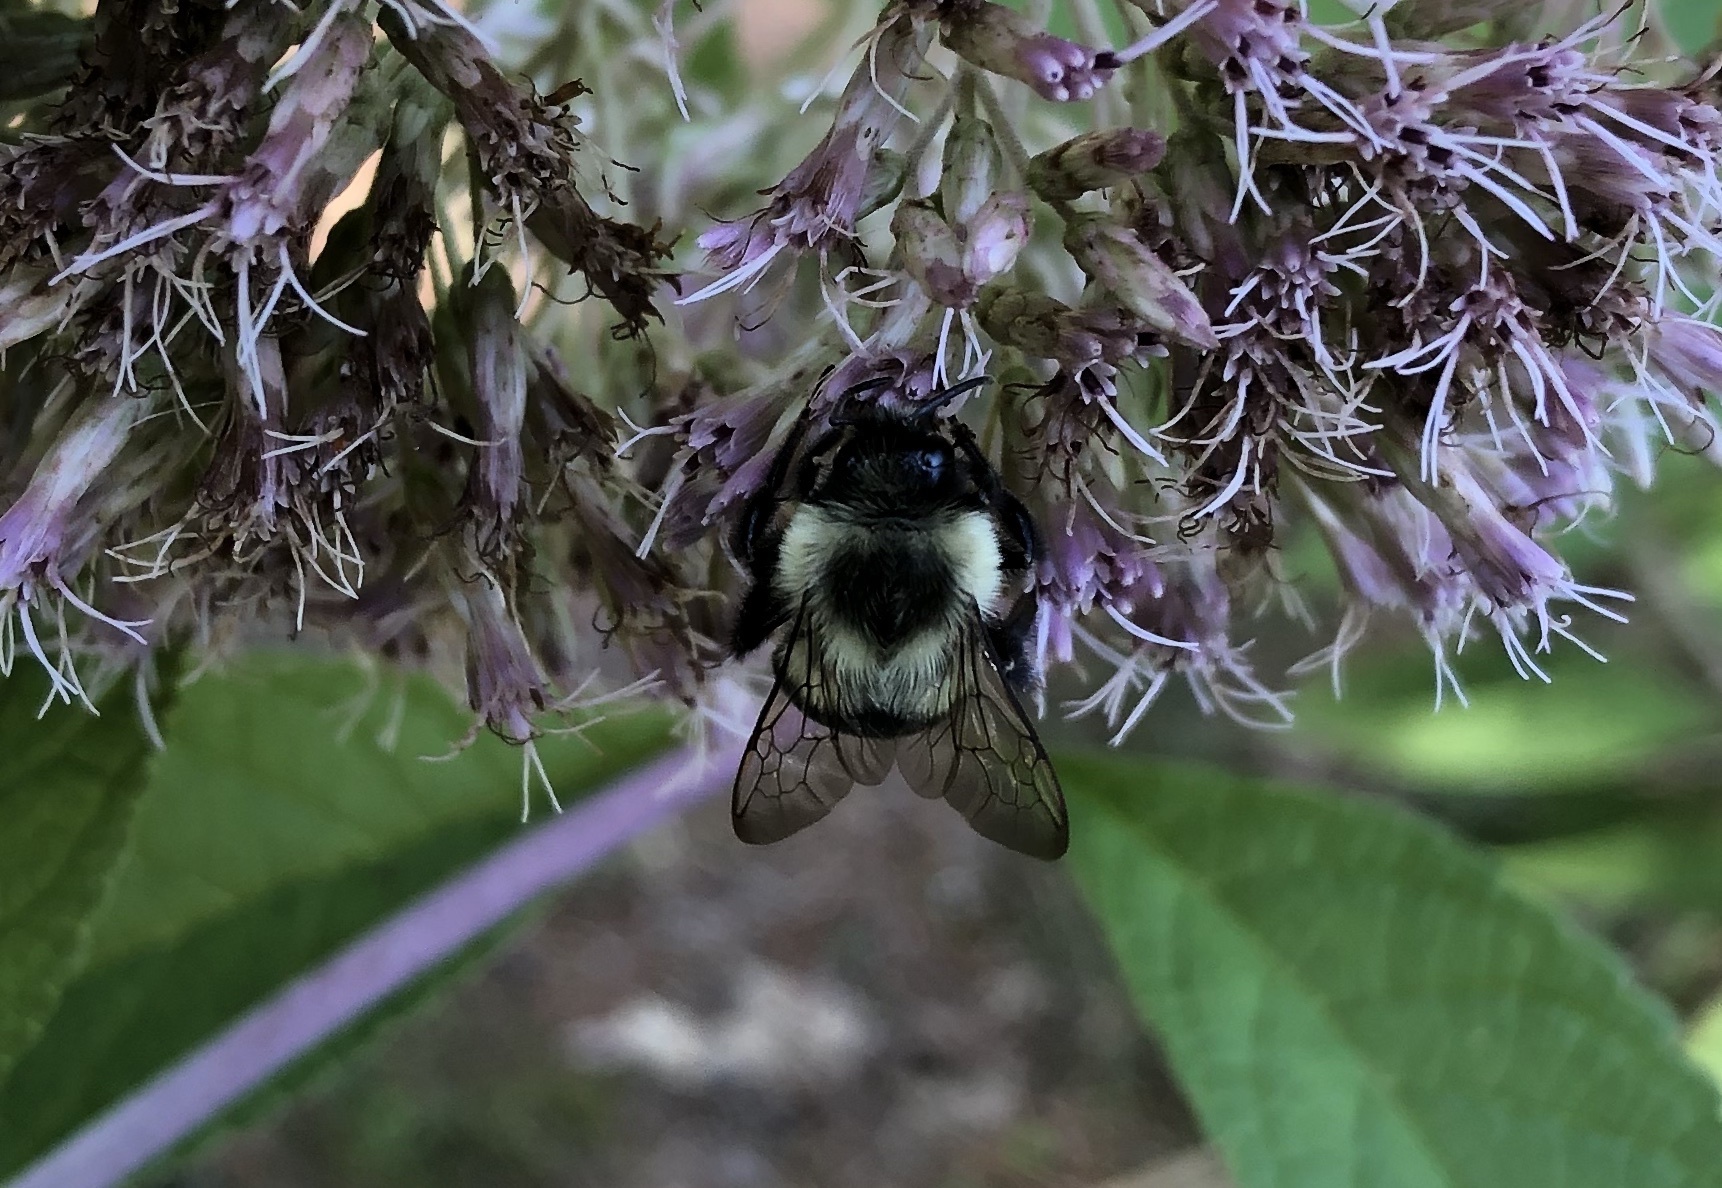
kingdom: Animalia
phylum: Arthropoda
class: Insecta
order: Hymenoptera
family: Apidae
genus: Bombus
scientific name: Bombus impatiens
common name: Common eastern bumble bee
